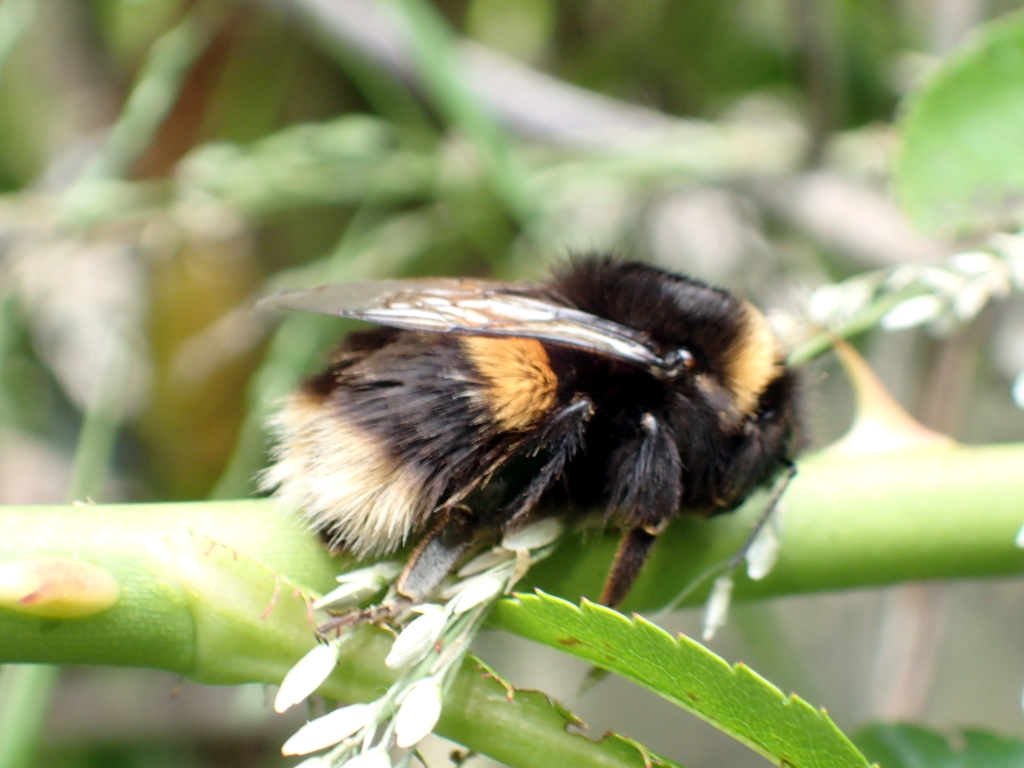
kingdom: Animalia
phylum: Arthropoda
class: Insecta
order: Hymenoptera
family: Apidae
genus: Bombus
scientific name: Bombus terrestris
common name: Buff-tailed bumblebee
